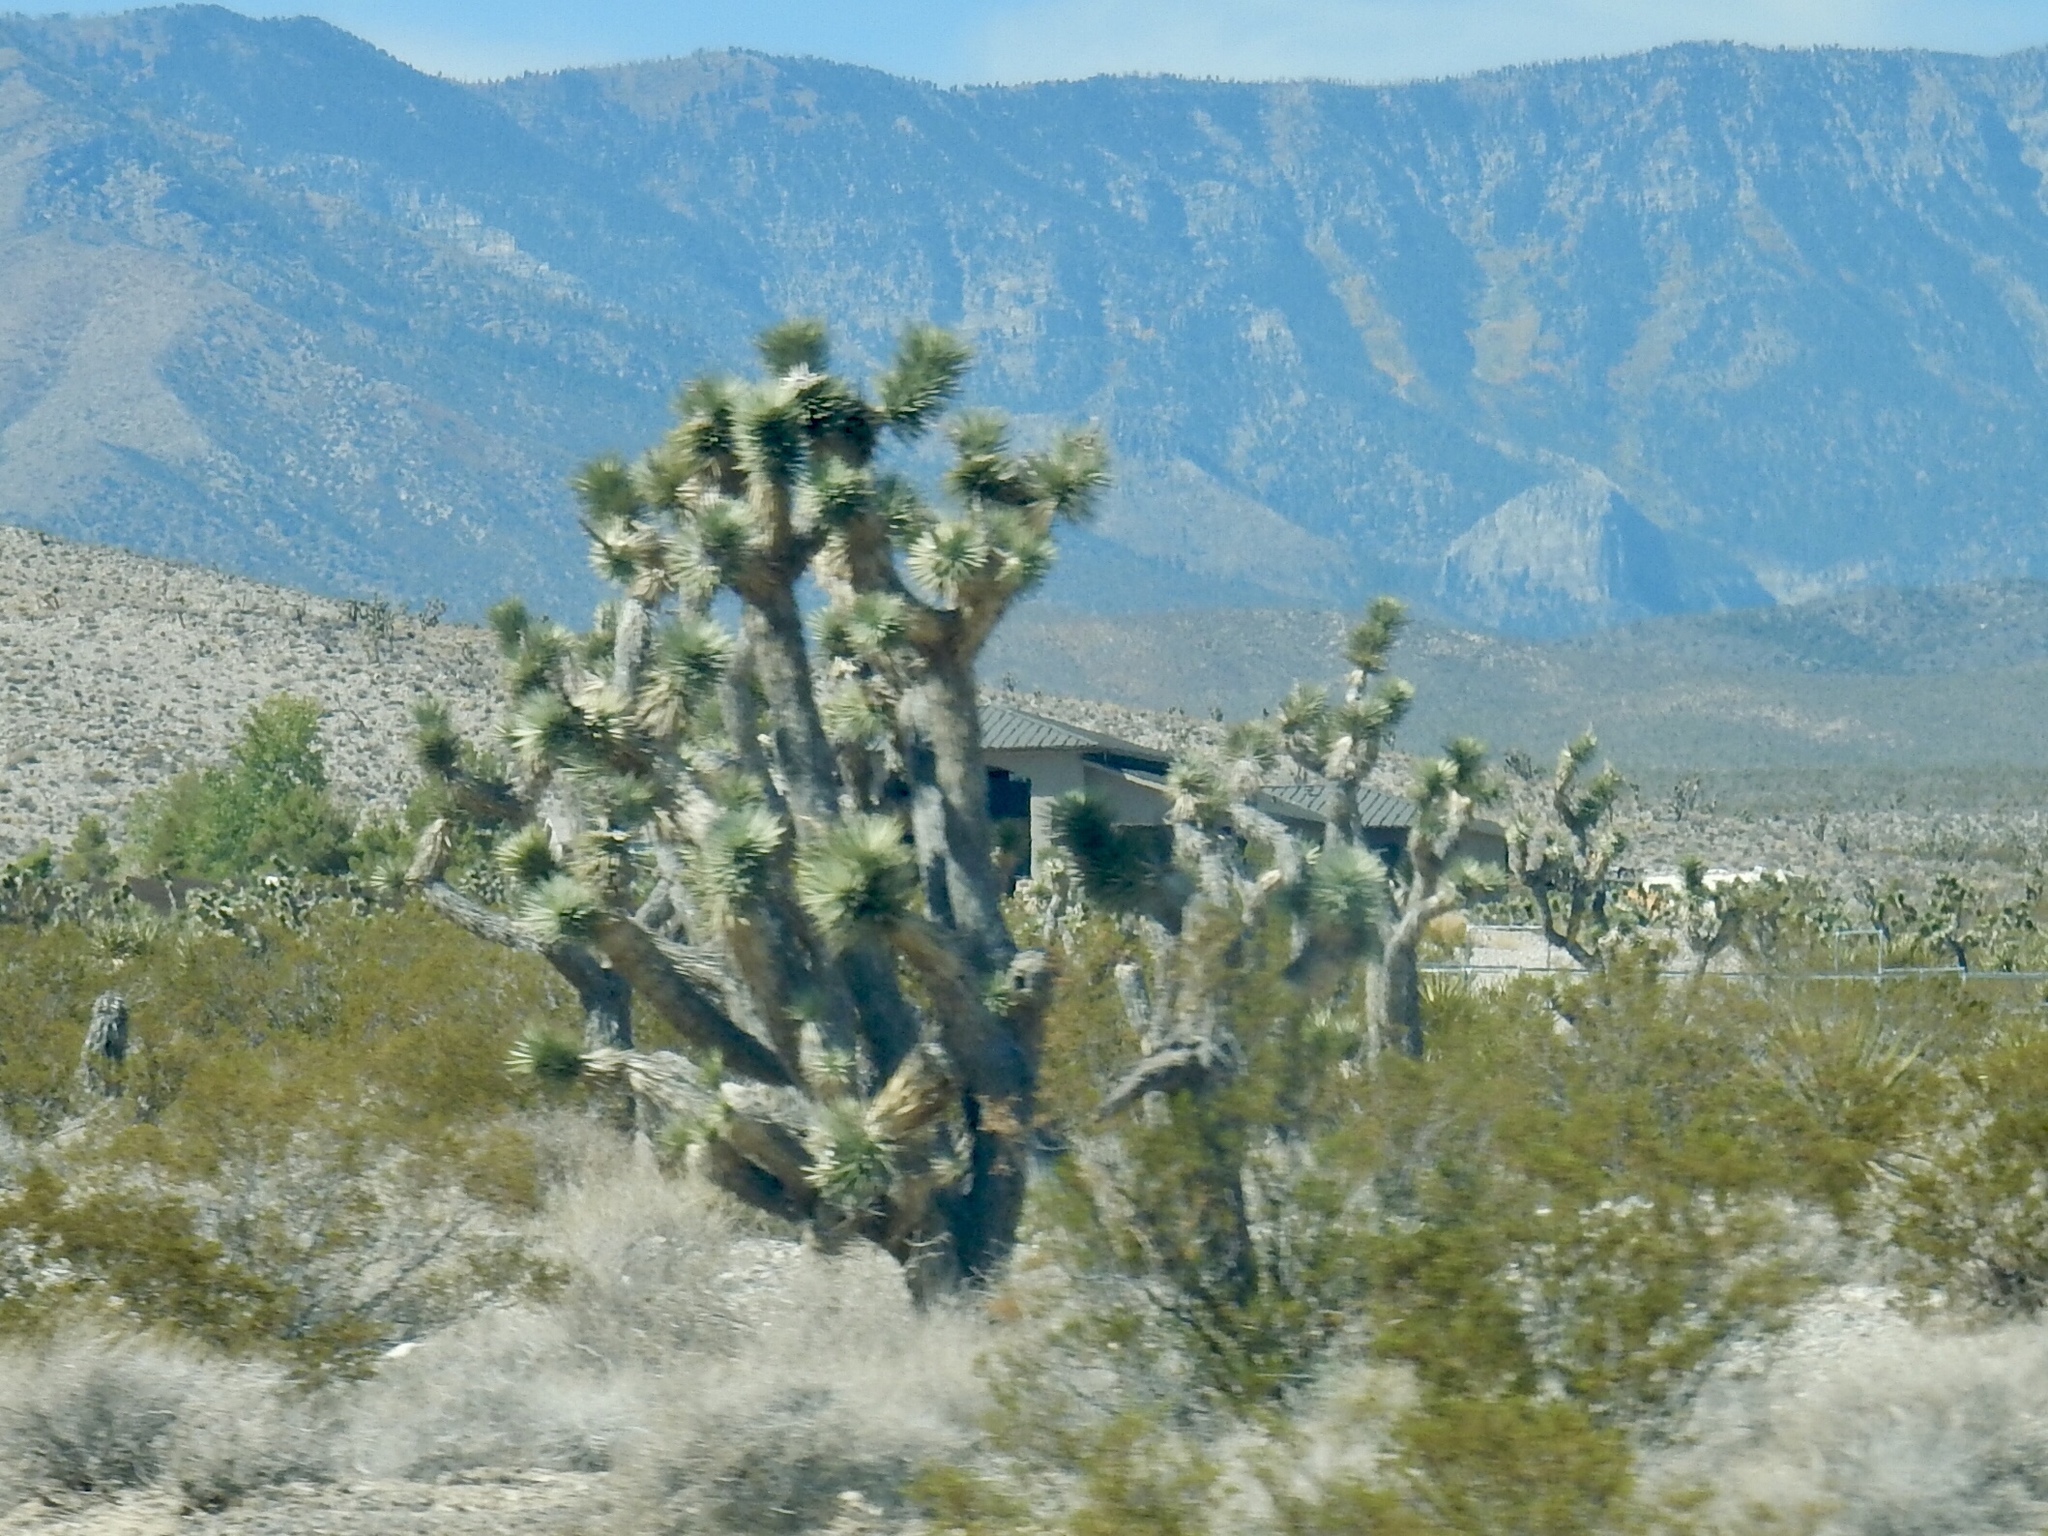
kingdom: Plantae
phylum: Tracheophyta
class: Liliopsida
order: Asparagales
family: Asparagaceae
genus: Yucca
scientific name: Yucca brevifolia
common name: Joshua tree
